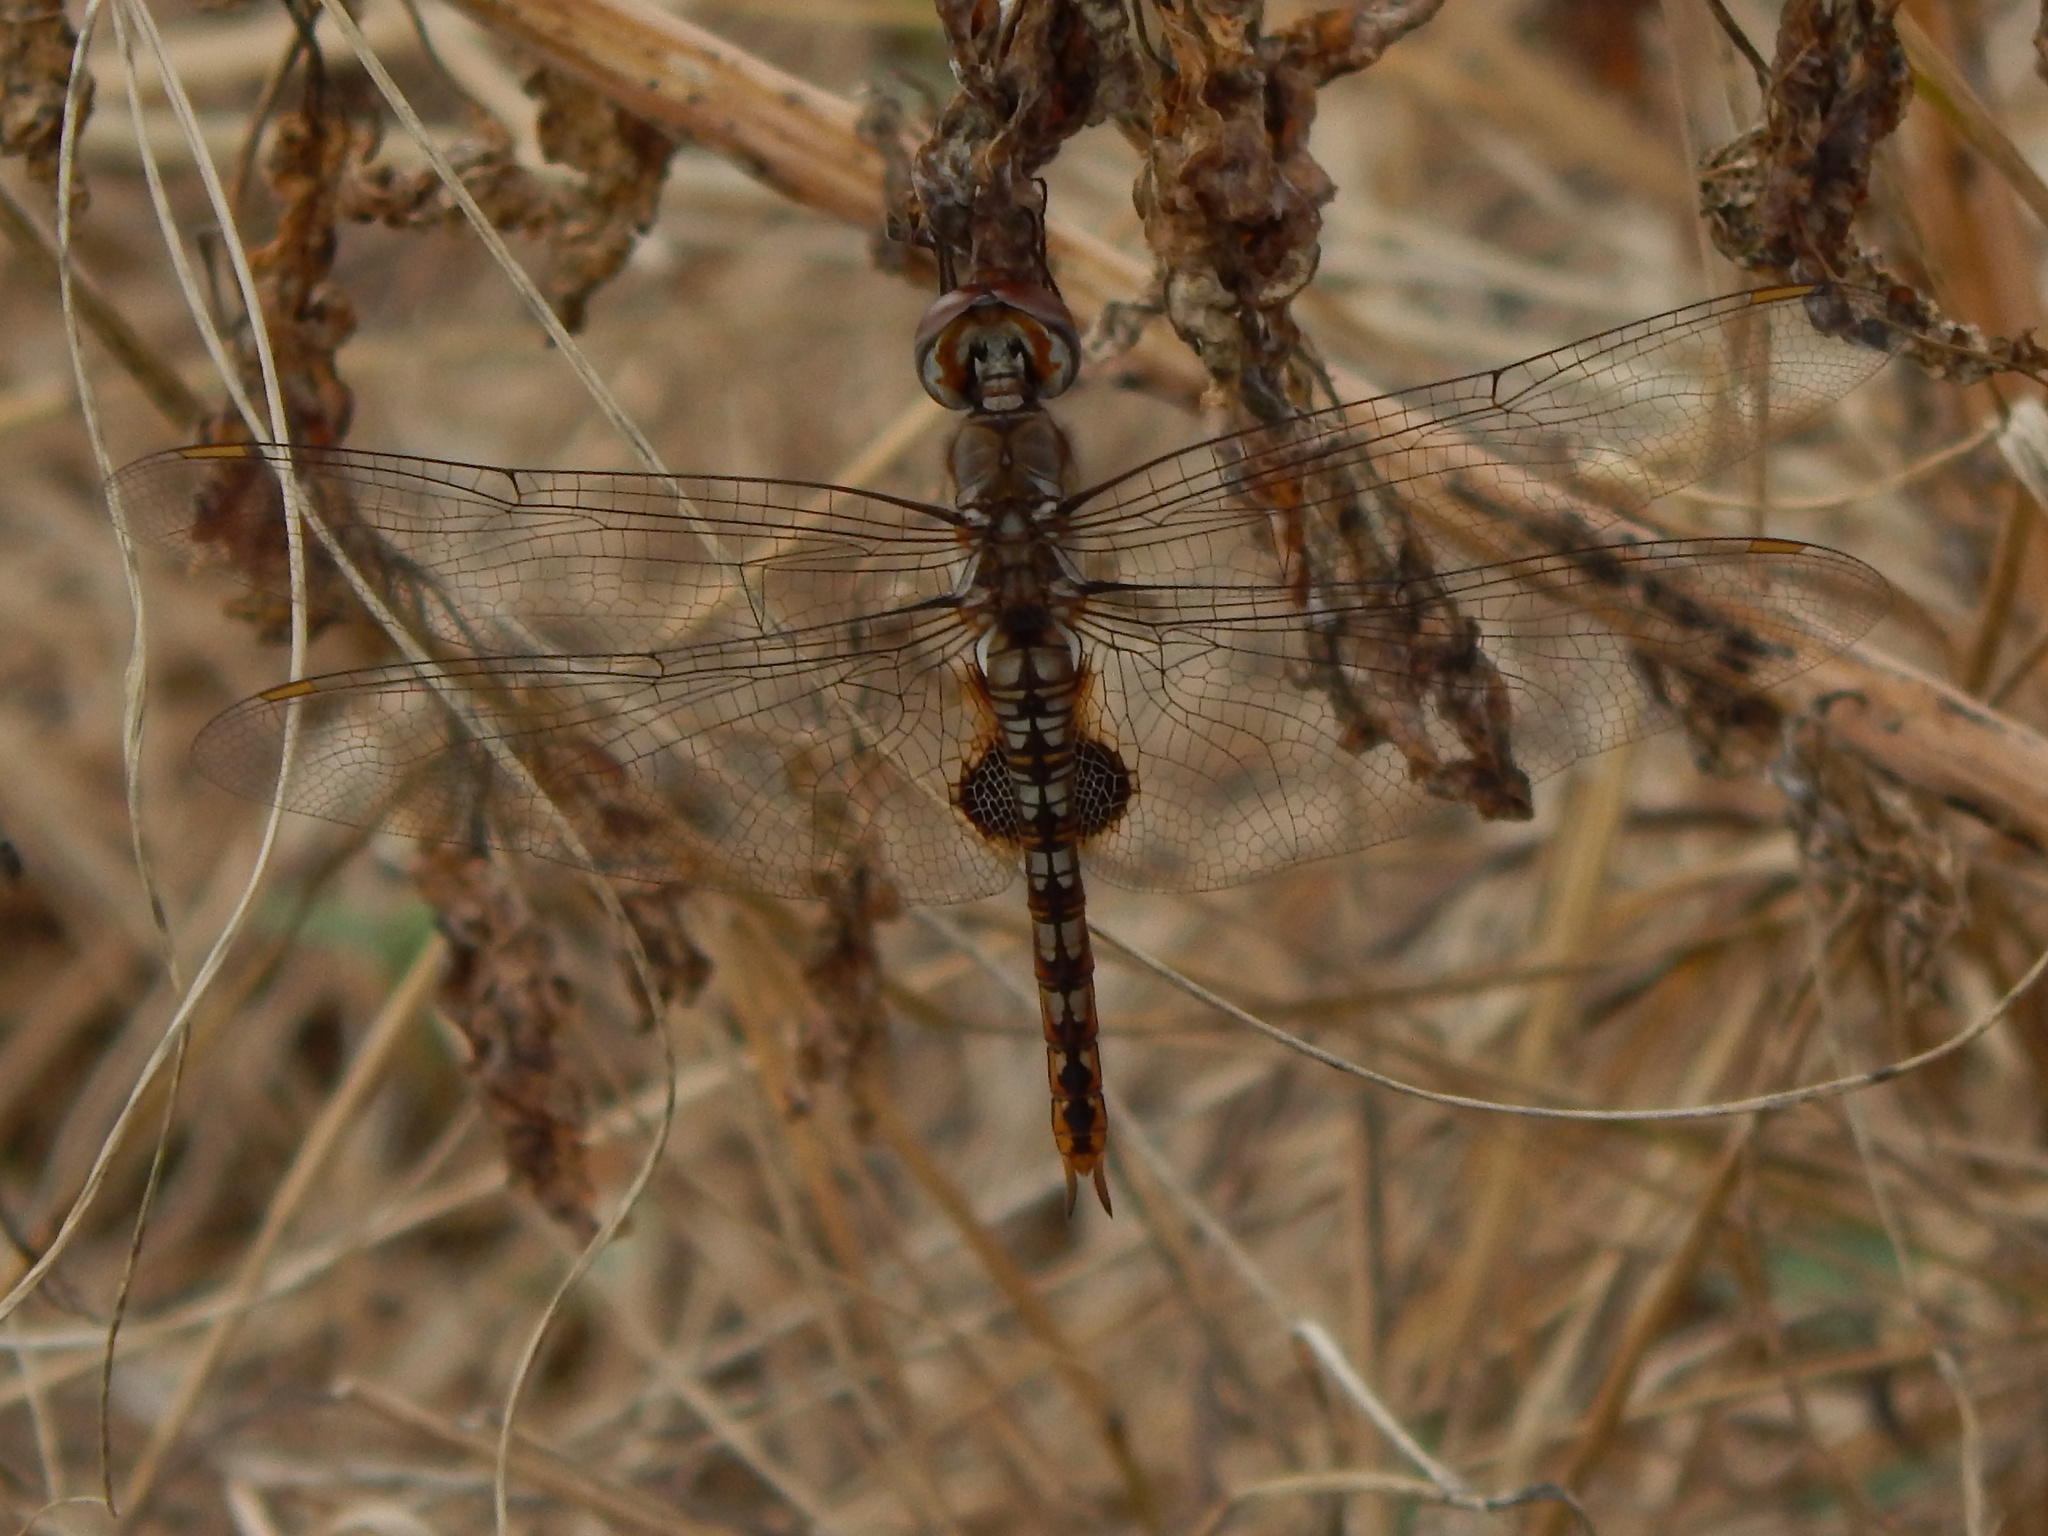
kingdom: Animalia
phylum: Arthropoda
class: Insecta
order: Odonata
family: Libellulidae
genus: Pantala
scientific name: Pantala hymenaea
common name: Spot-winged glider
